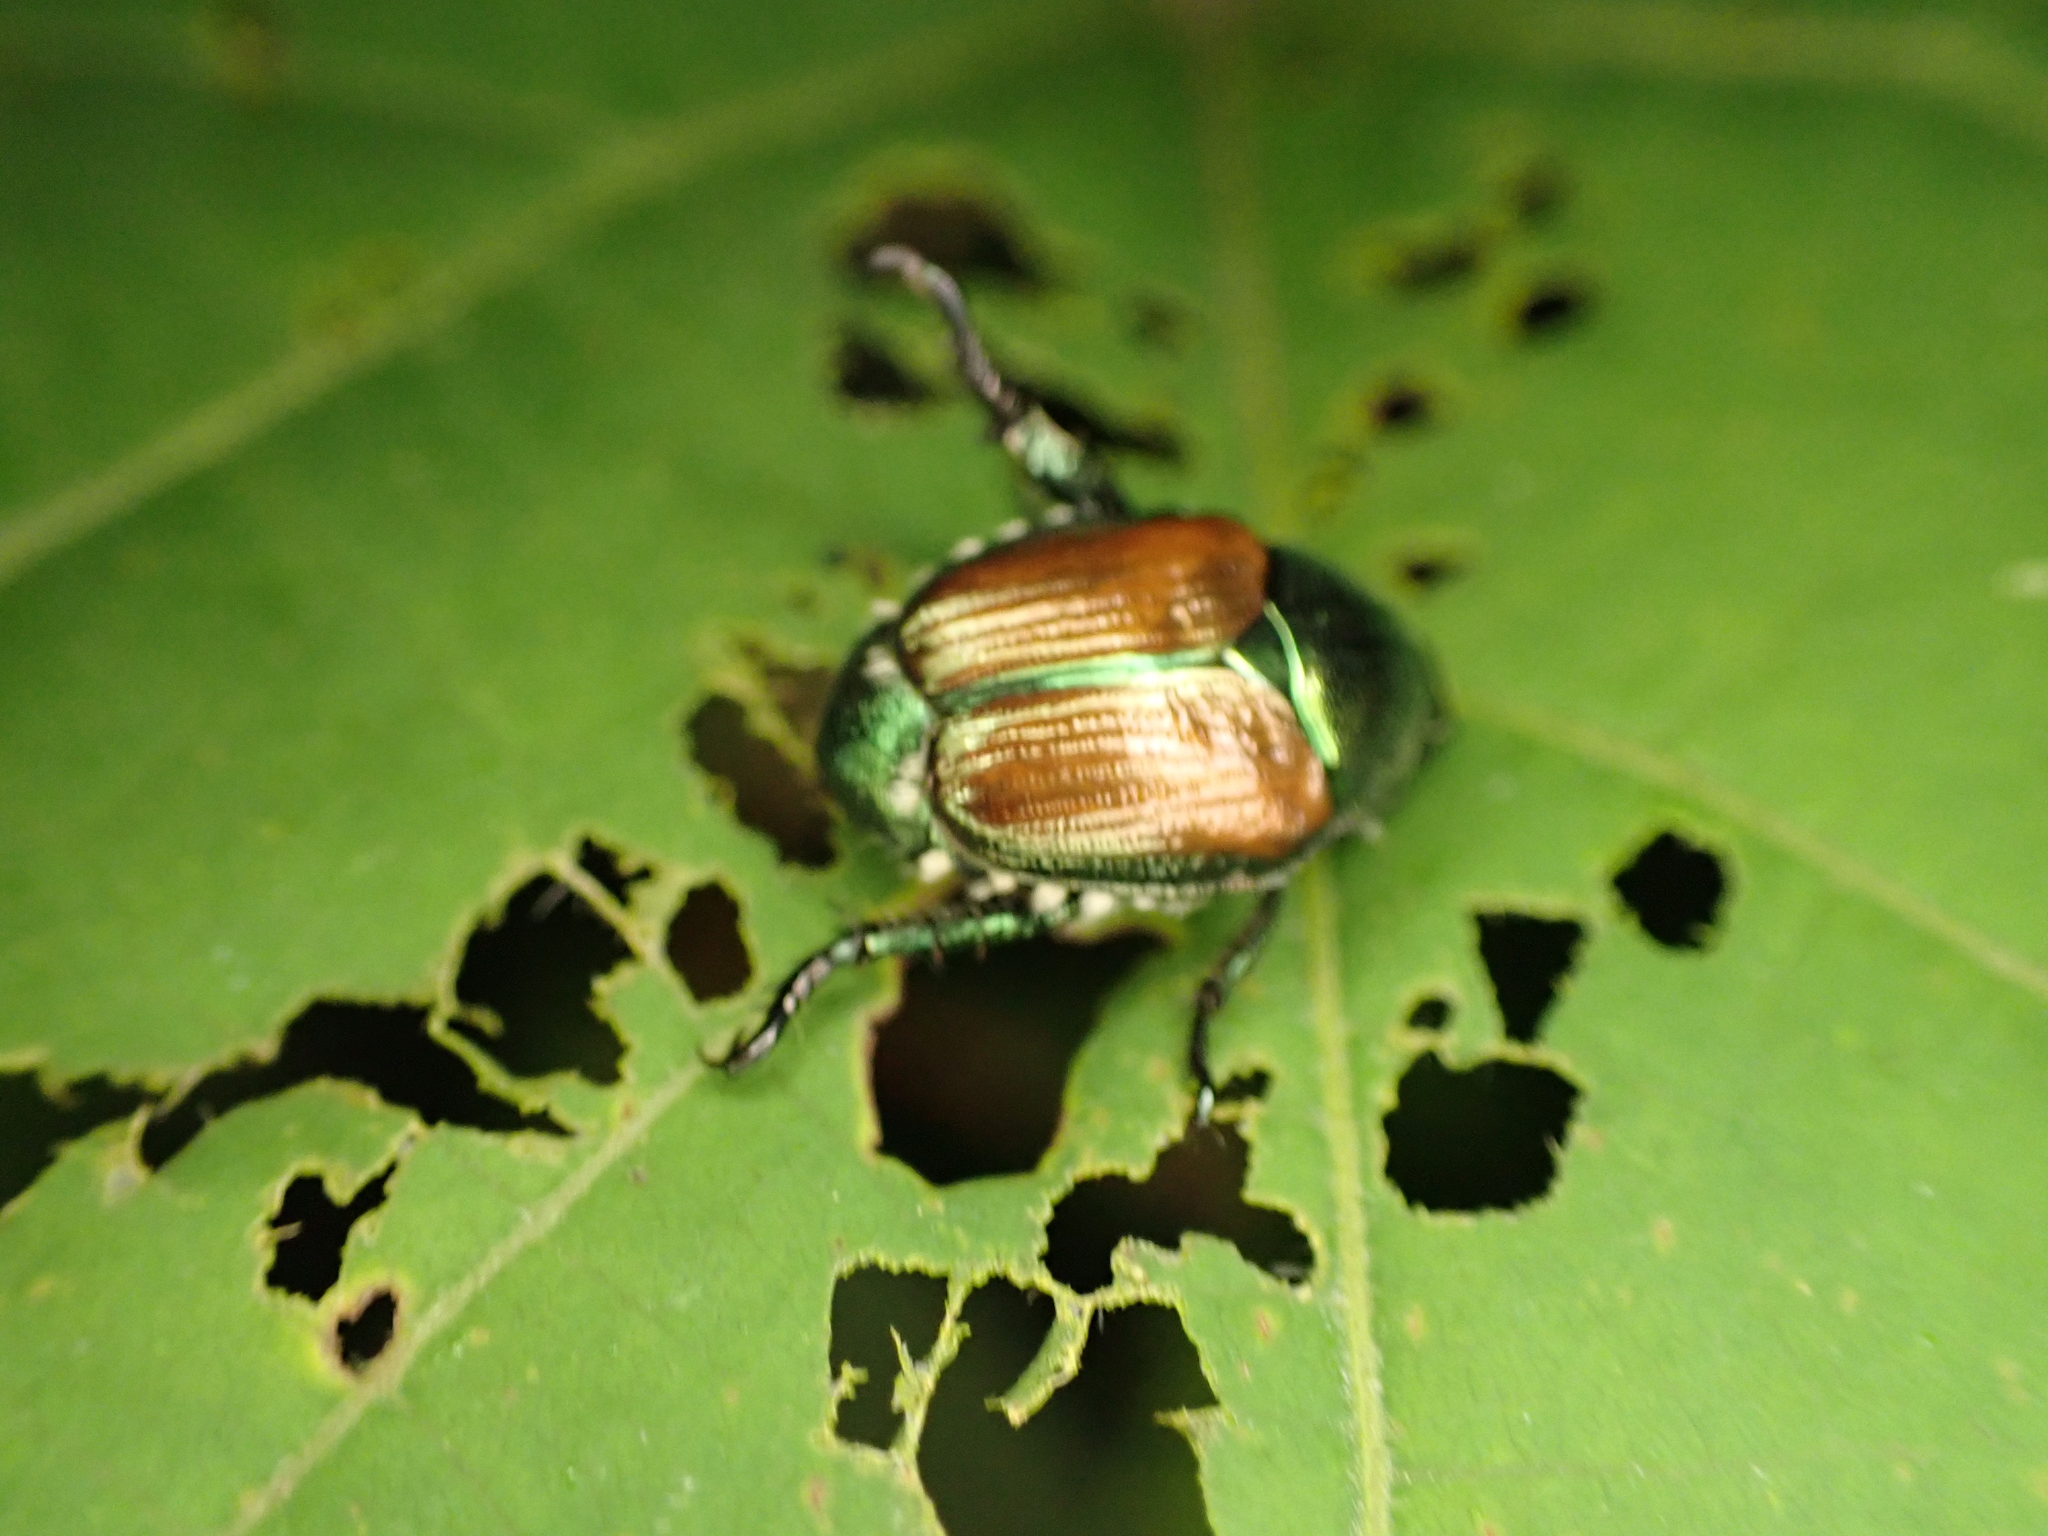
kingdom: Animalia
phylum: Arthropoda
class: Insecta
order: Coleoptera
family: Scarabaeidae
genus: Popillia
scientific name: Popillia japonica
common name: Japanese beetle
